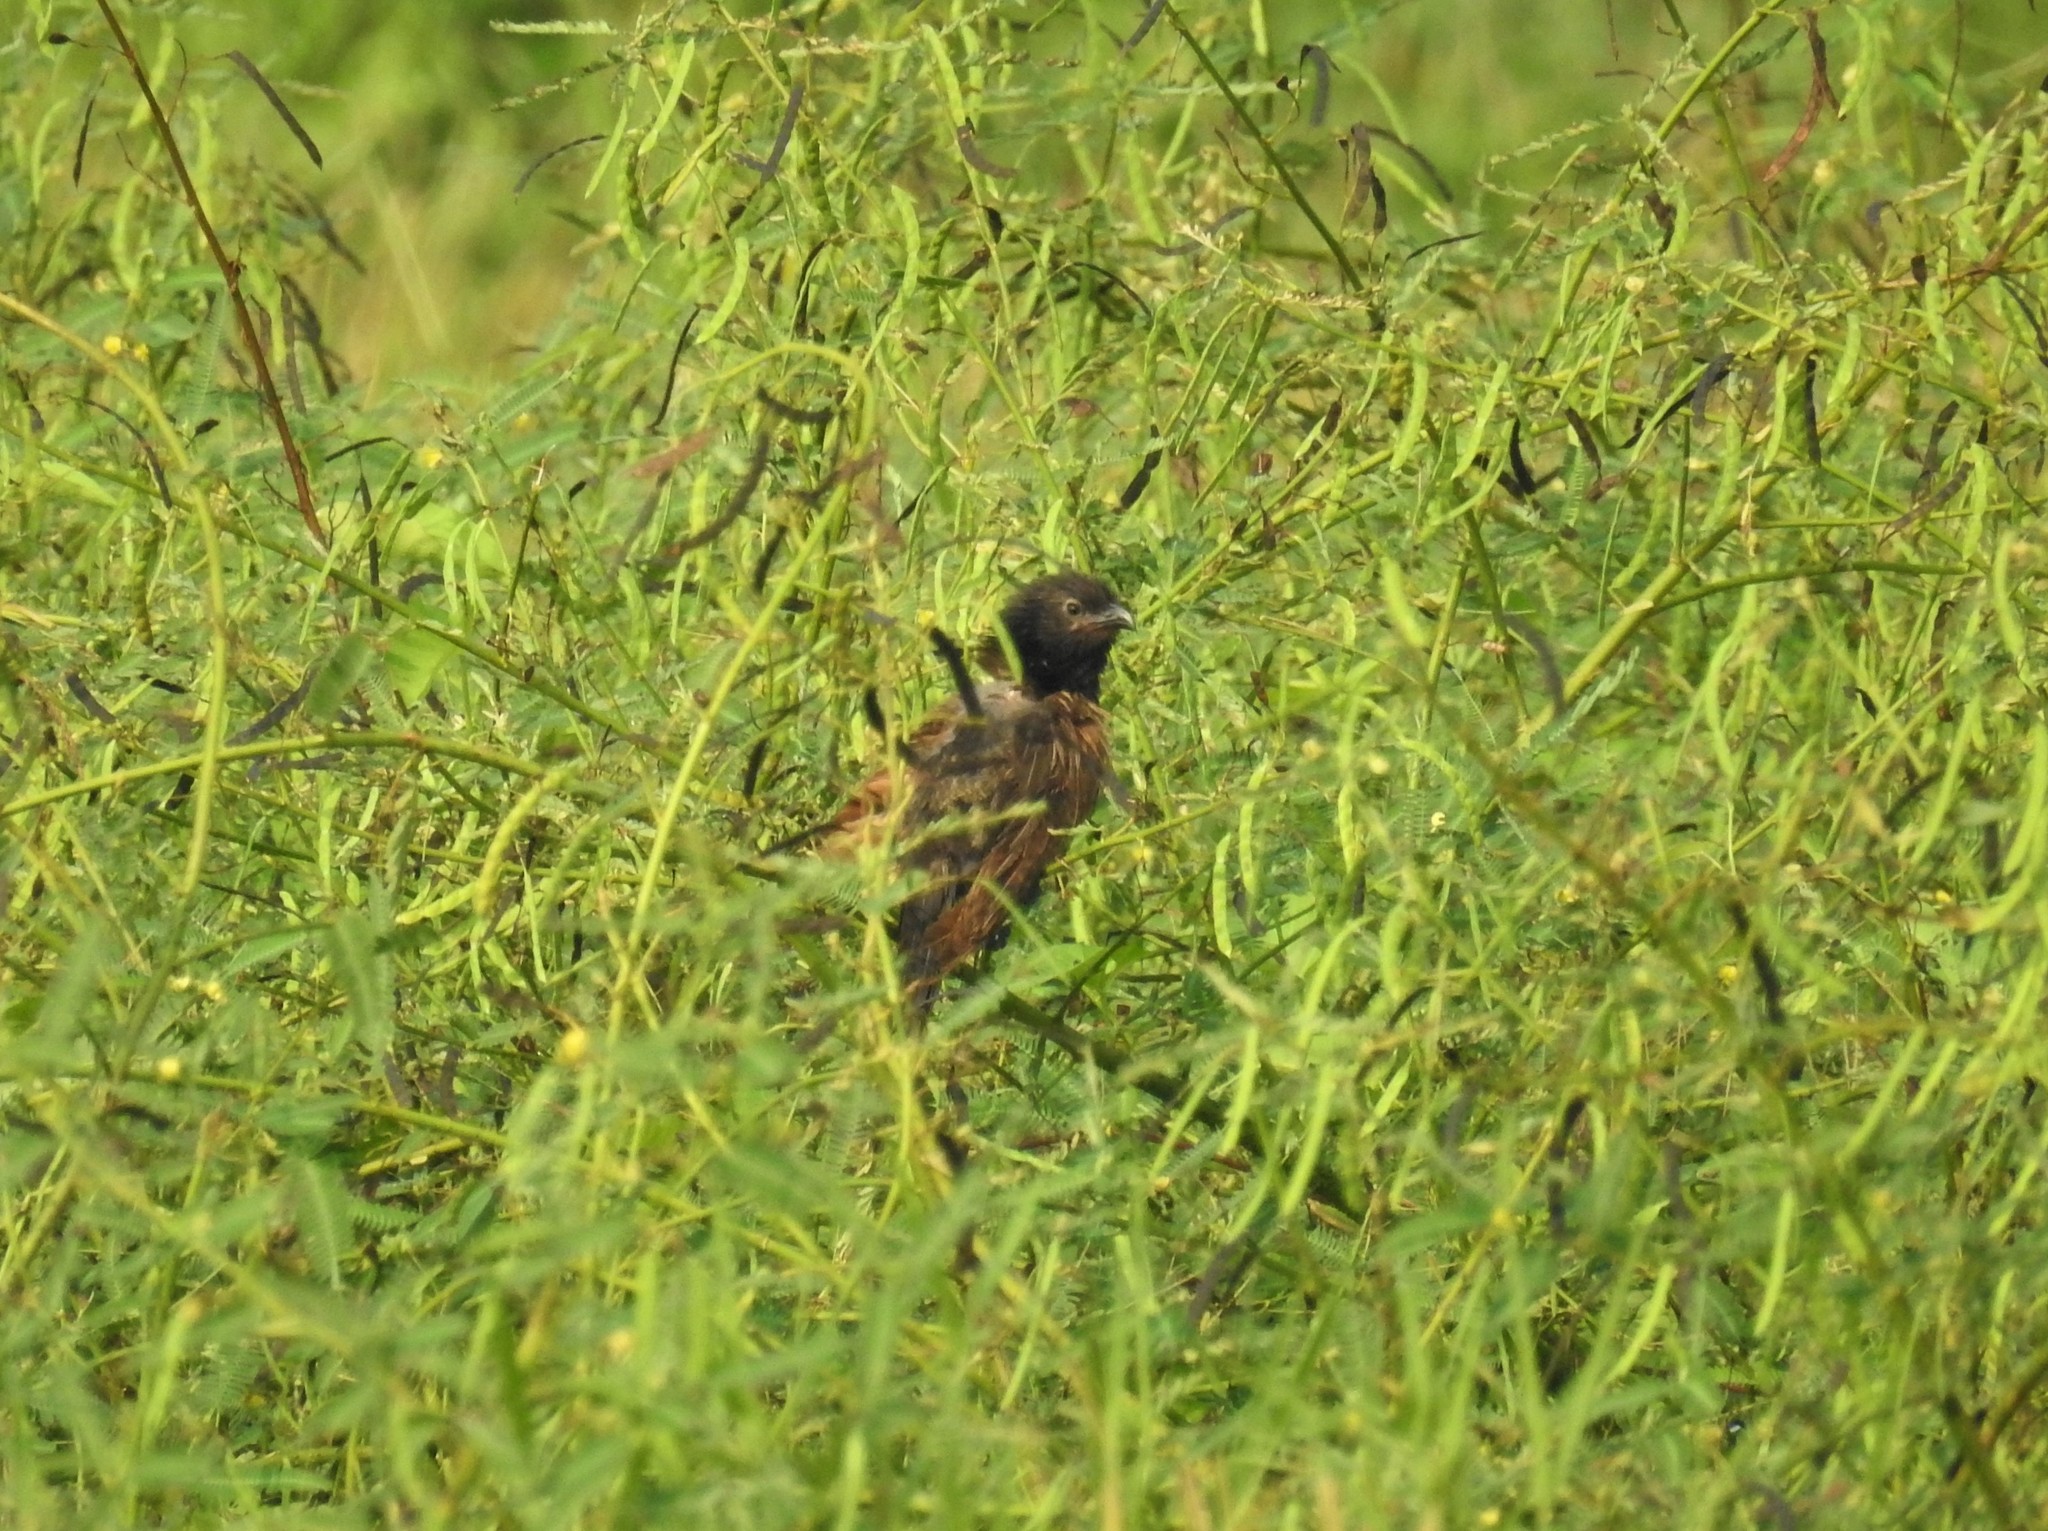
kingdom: Animalia
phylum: Chordata
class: Aves
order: Cuculiformes
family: Cuculidae
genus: Centropus
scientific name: Centropus bengalensis
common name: Lesser coucal
